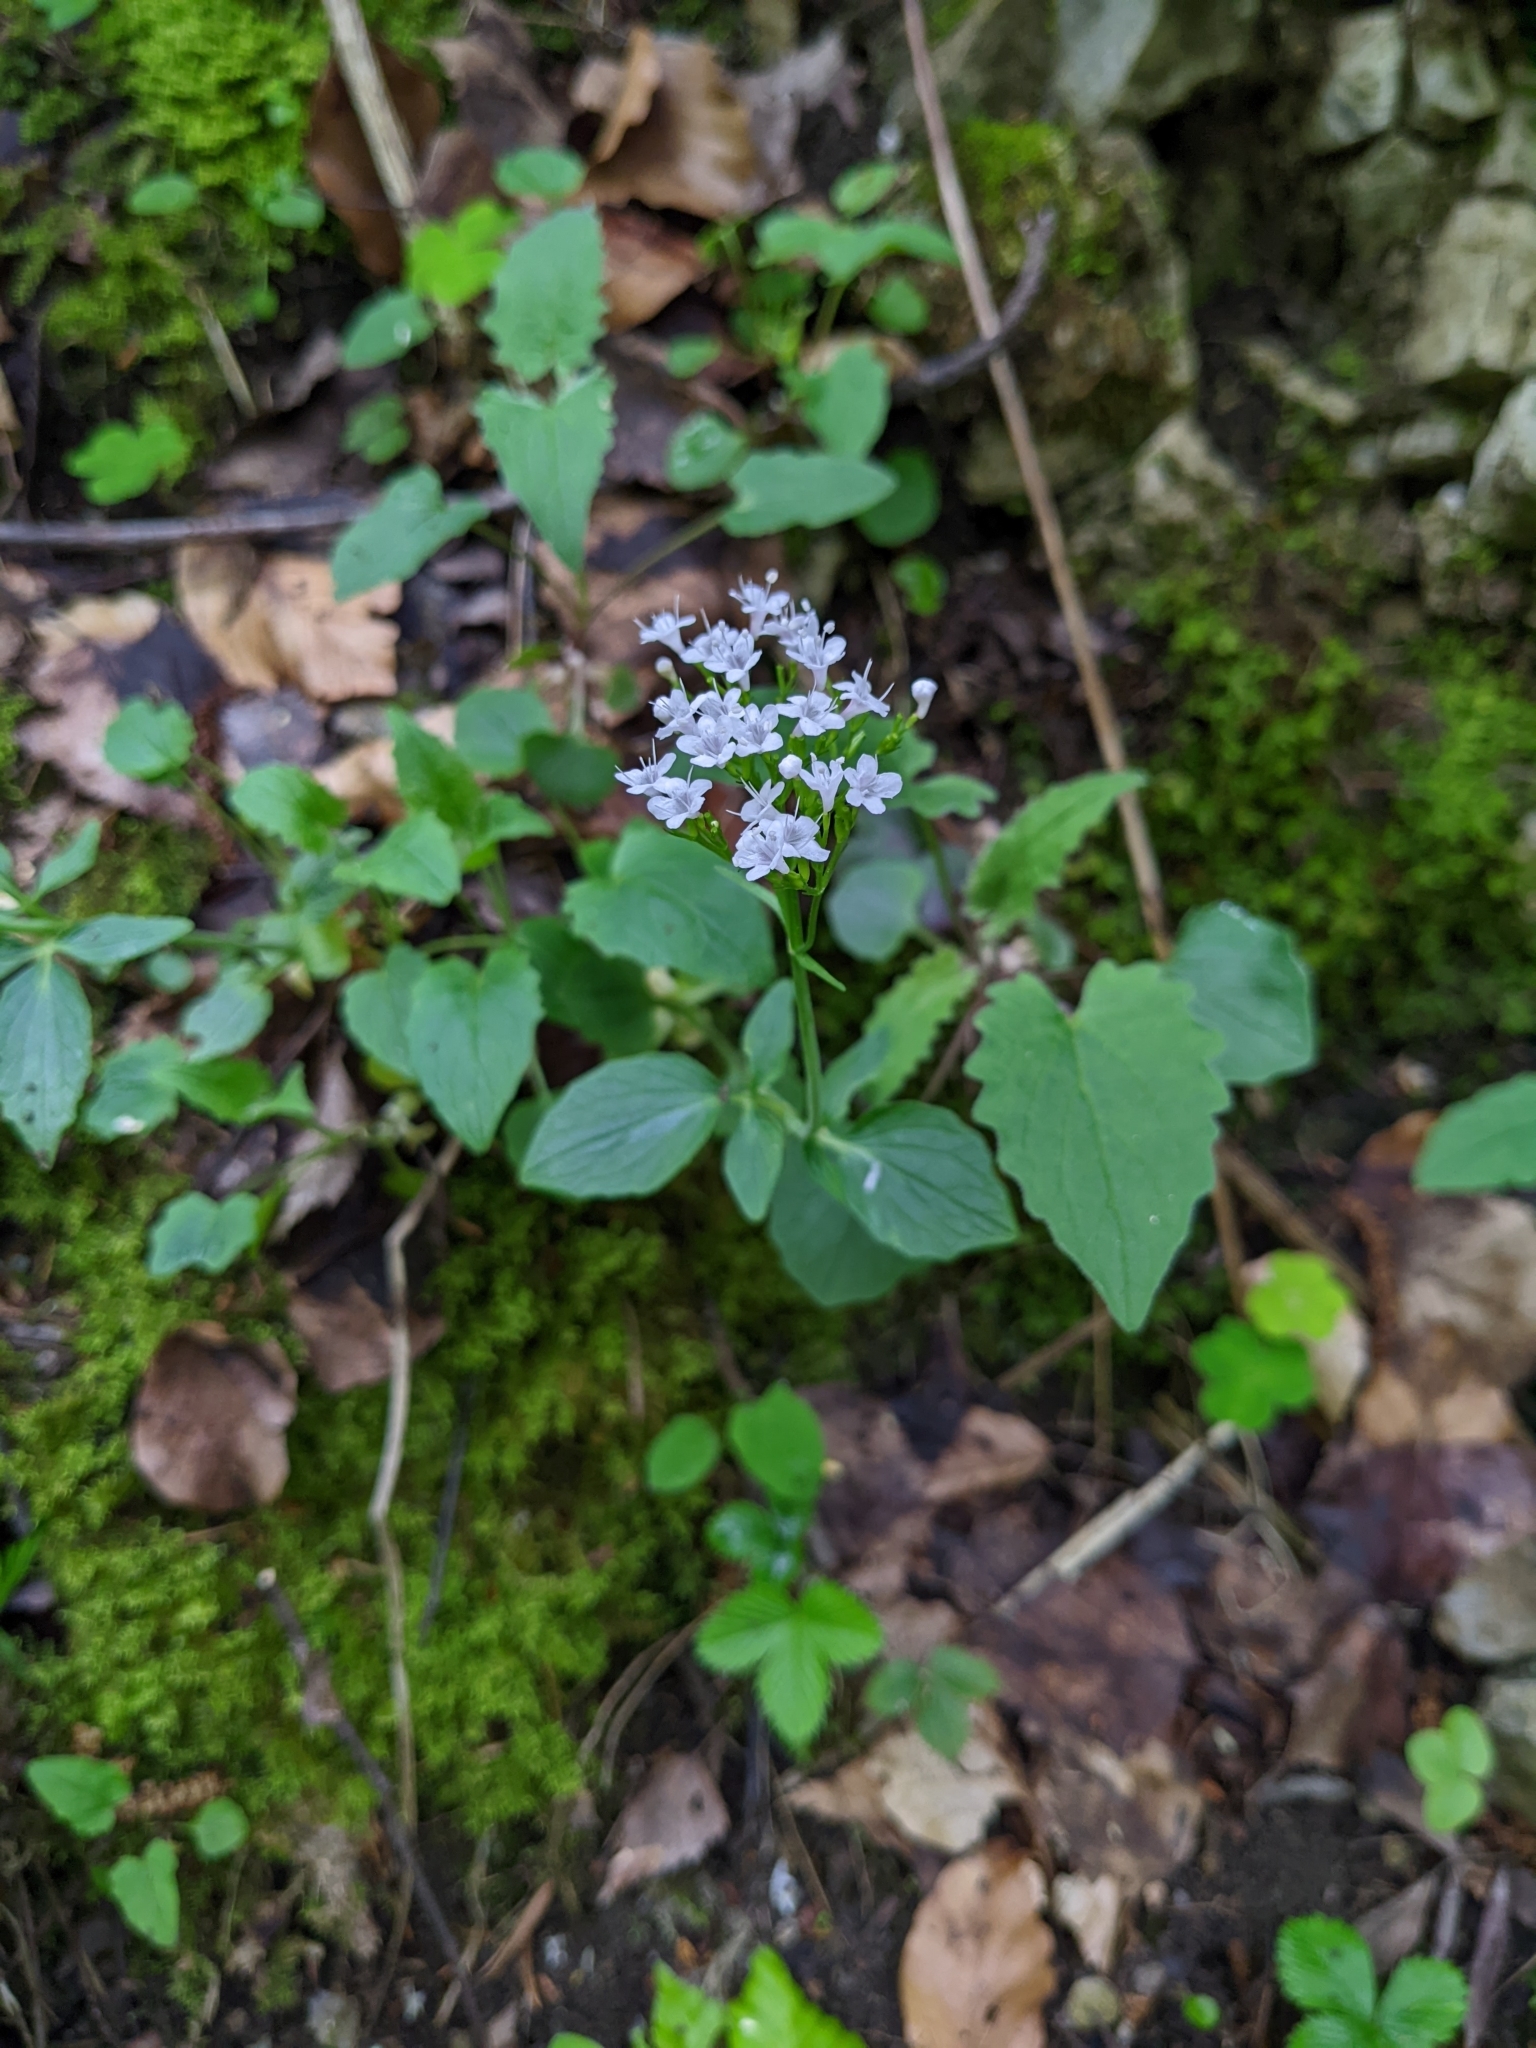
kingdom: Plantae
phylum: Tracheophyta
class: Magnoliopsida
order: Dipsacales
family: Caprifoliaceae
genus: Valeriana
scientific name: Valeriana tripteris
